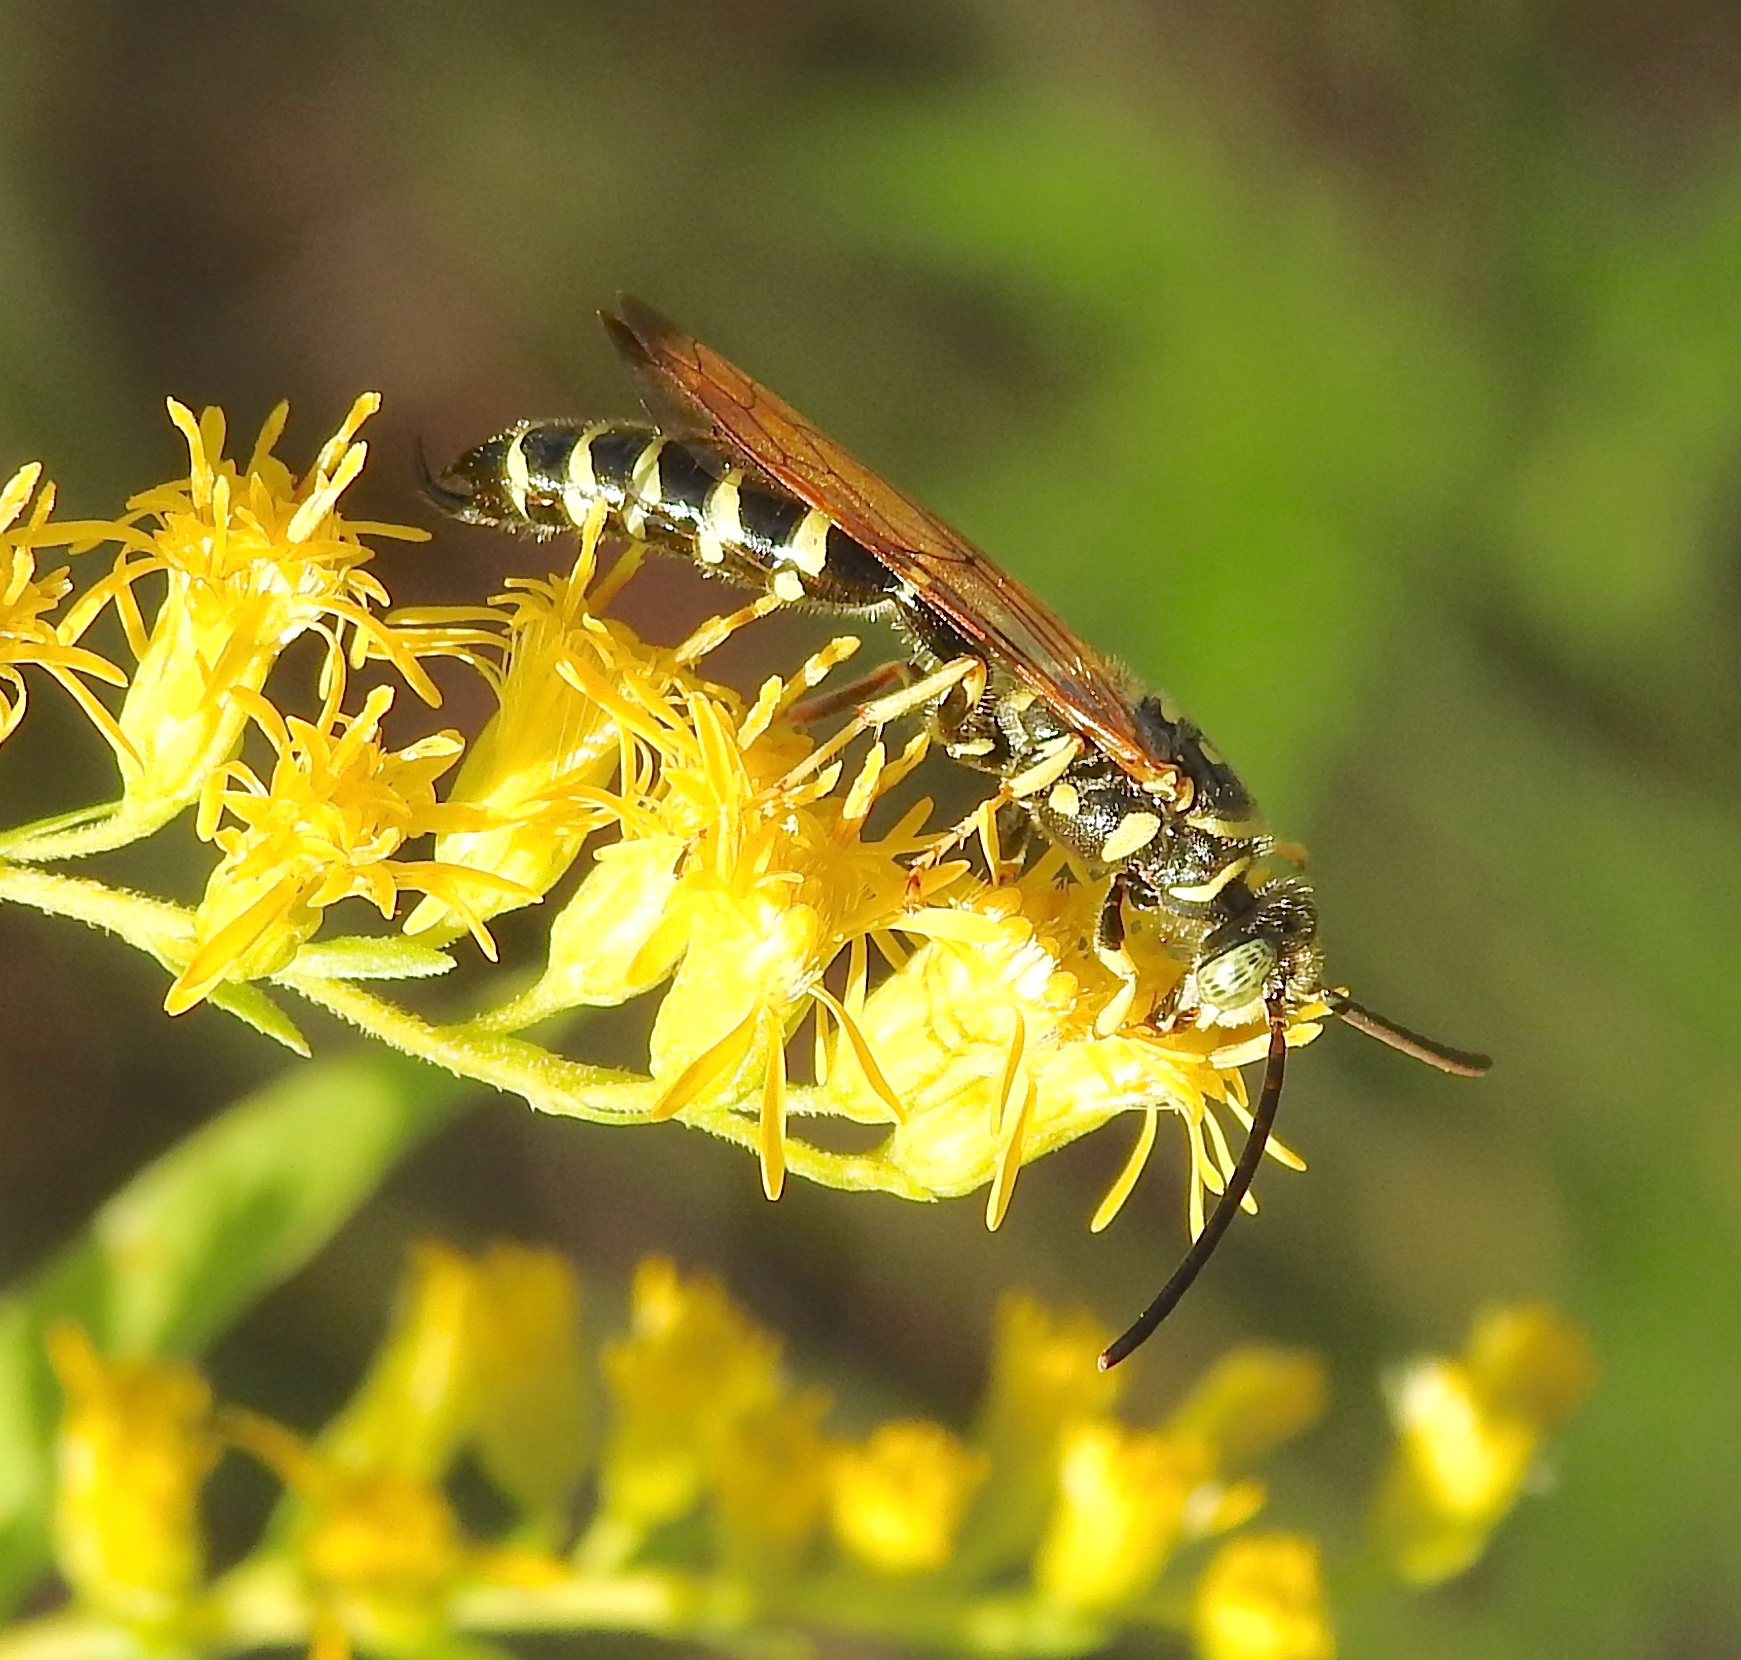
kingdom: Animalia
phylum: Arthropoda
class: Insecta
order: Hymenoptera
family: Tiphiidae
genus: Myzinum
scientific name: Myzinum
